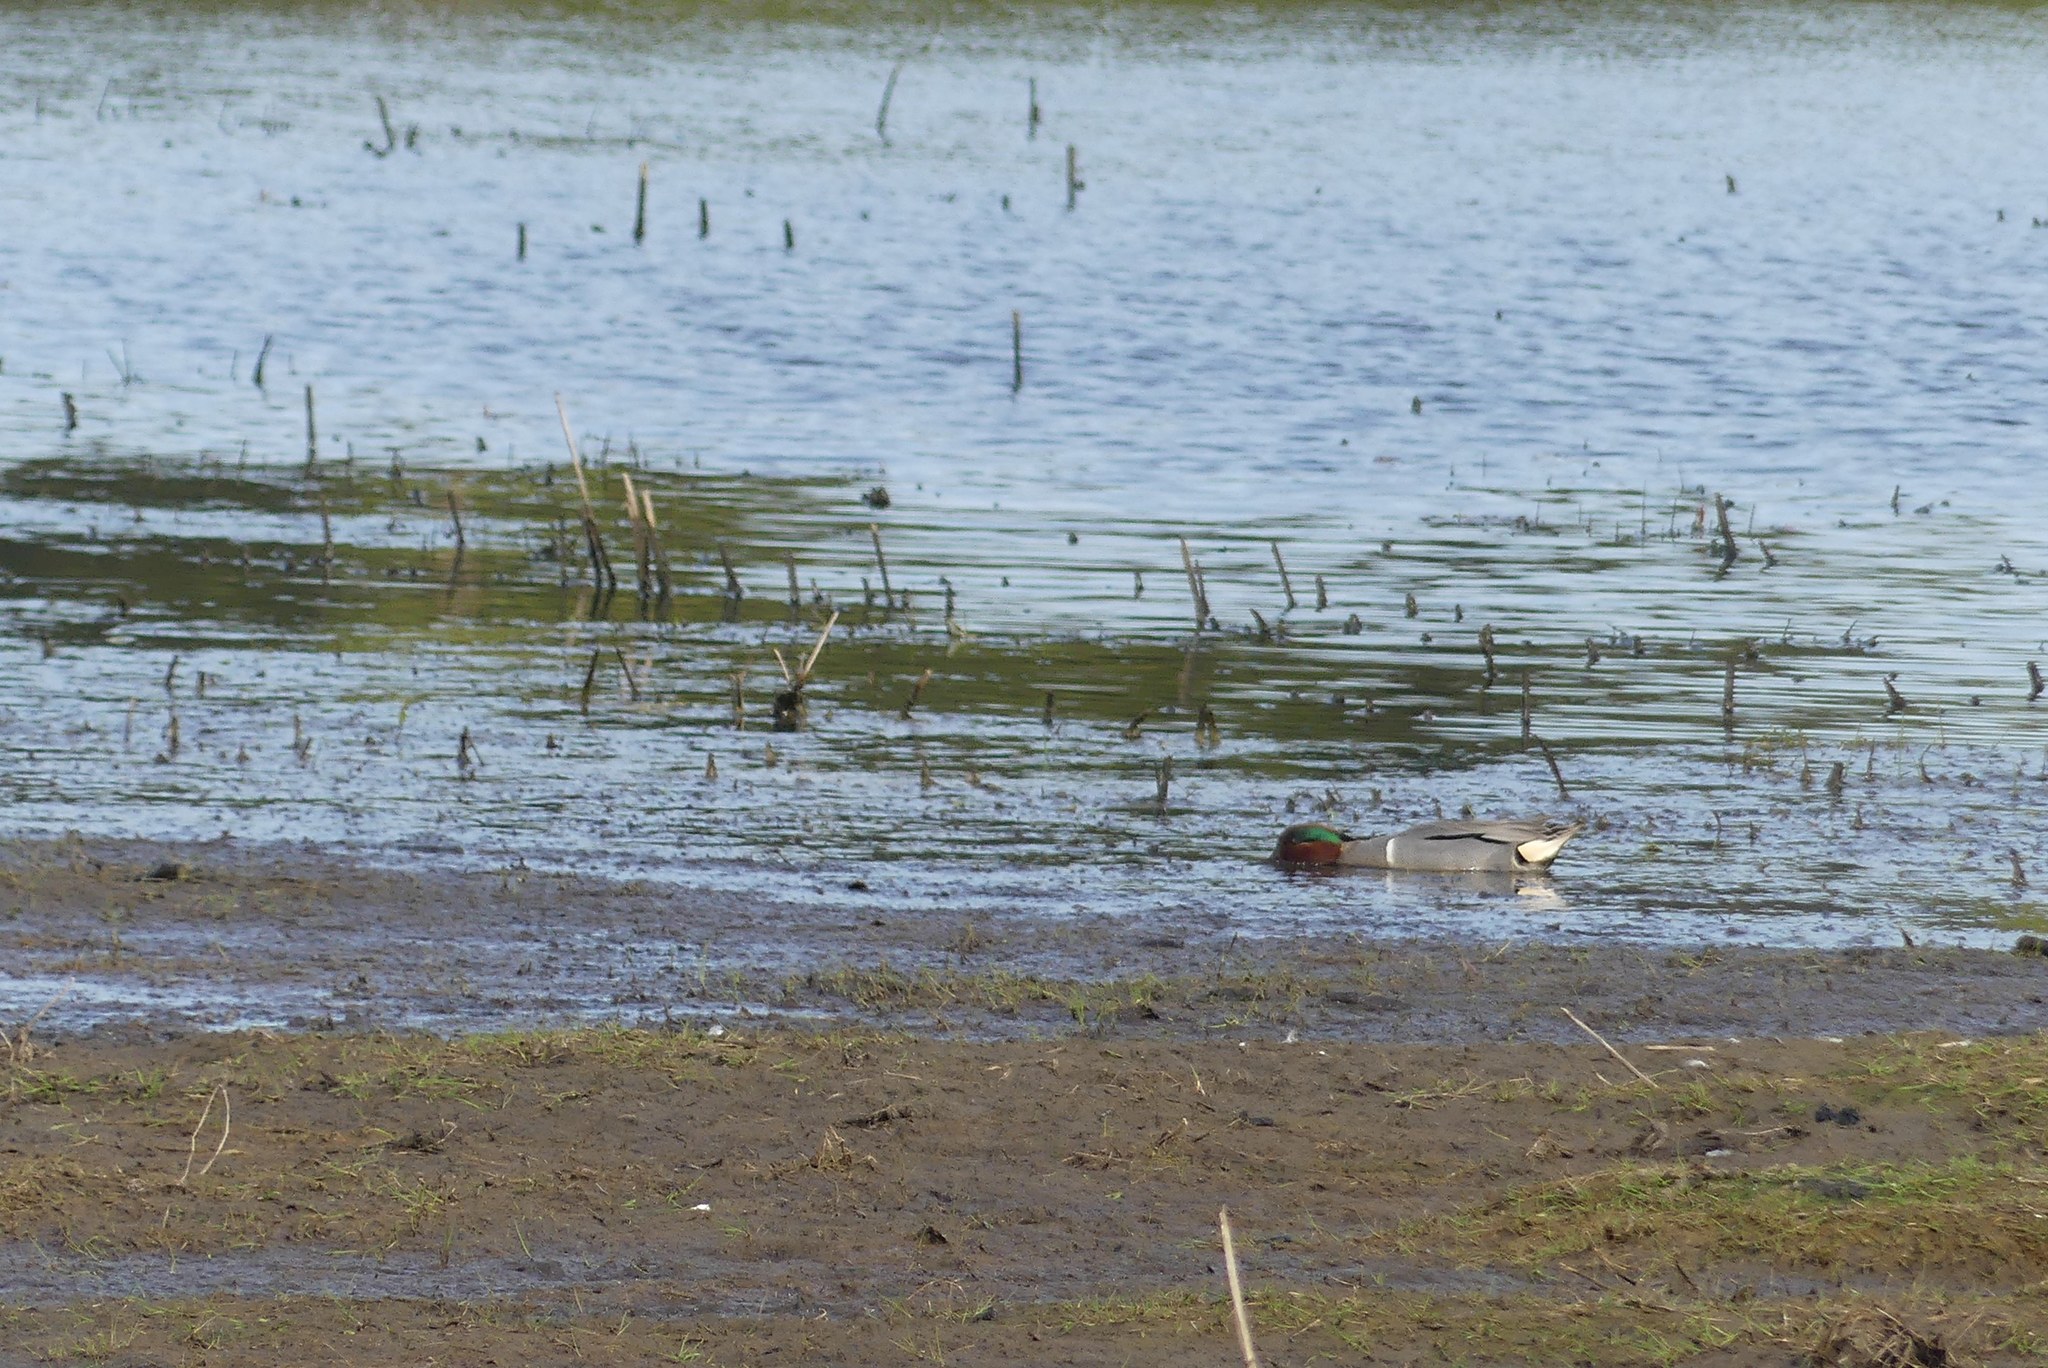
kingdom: Animalia
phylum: Chordata
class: Aves
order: Anseriformes
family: Anatidae
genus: Anas
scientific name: Anas crecca
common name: Eurasian teal
